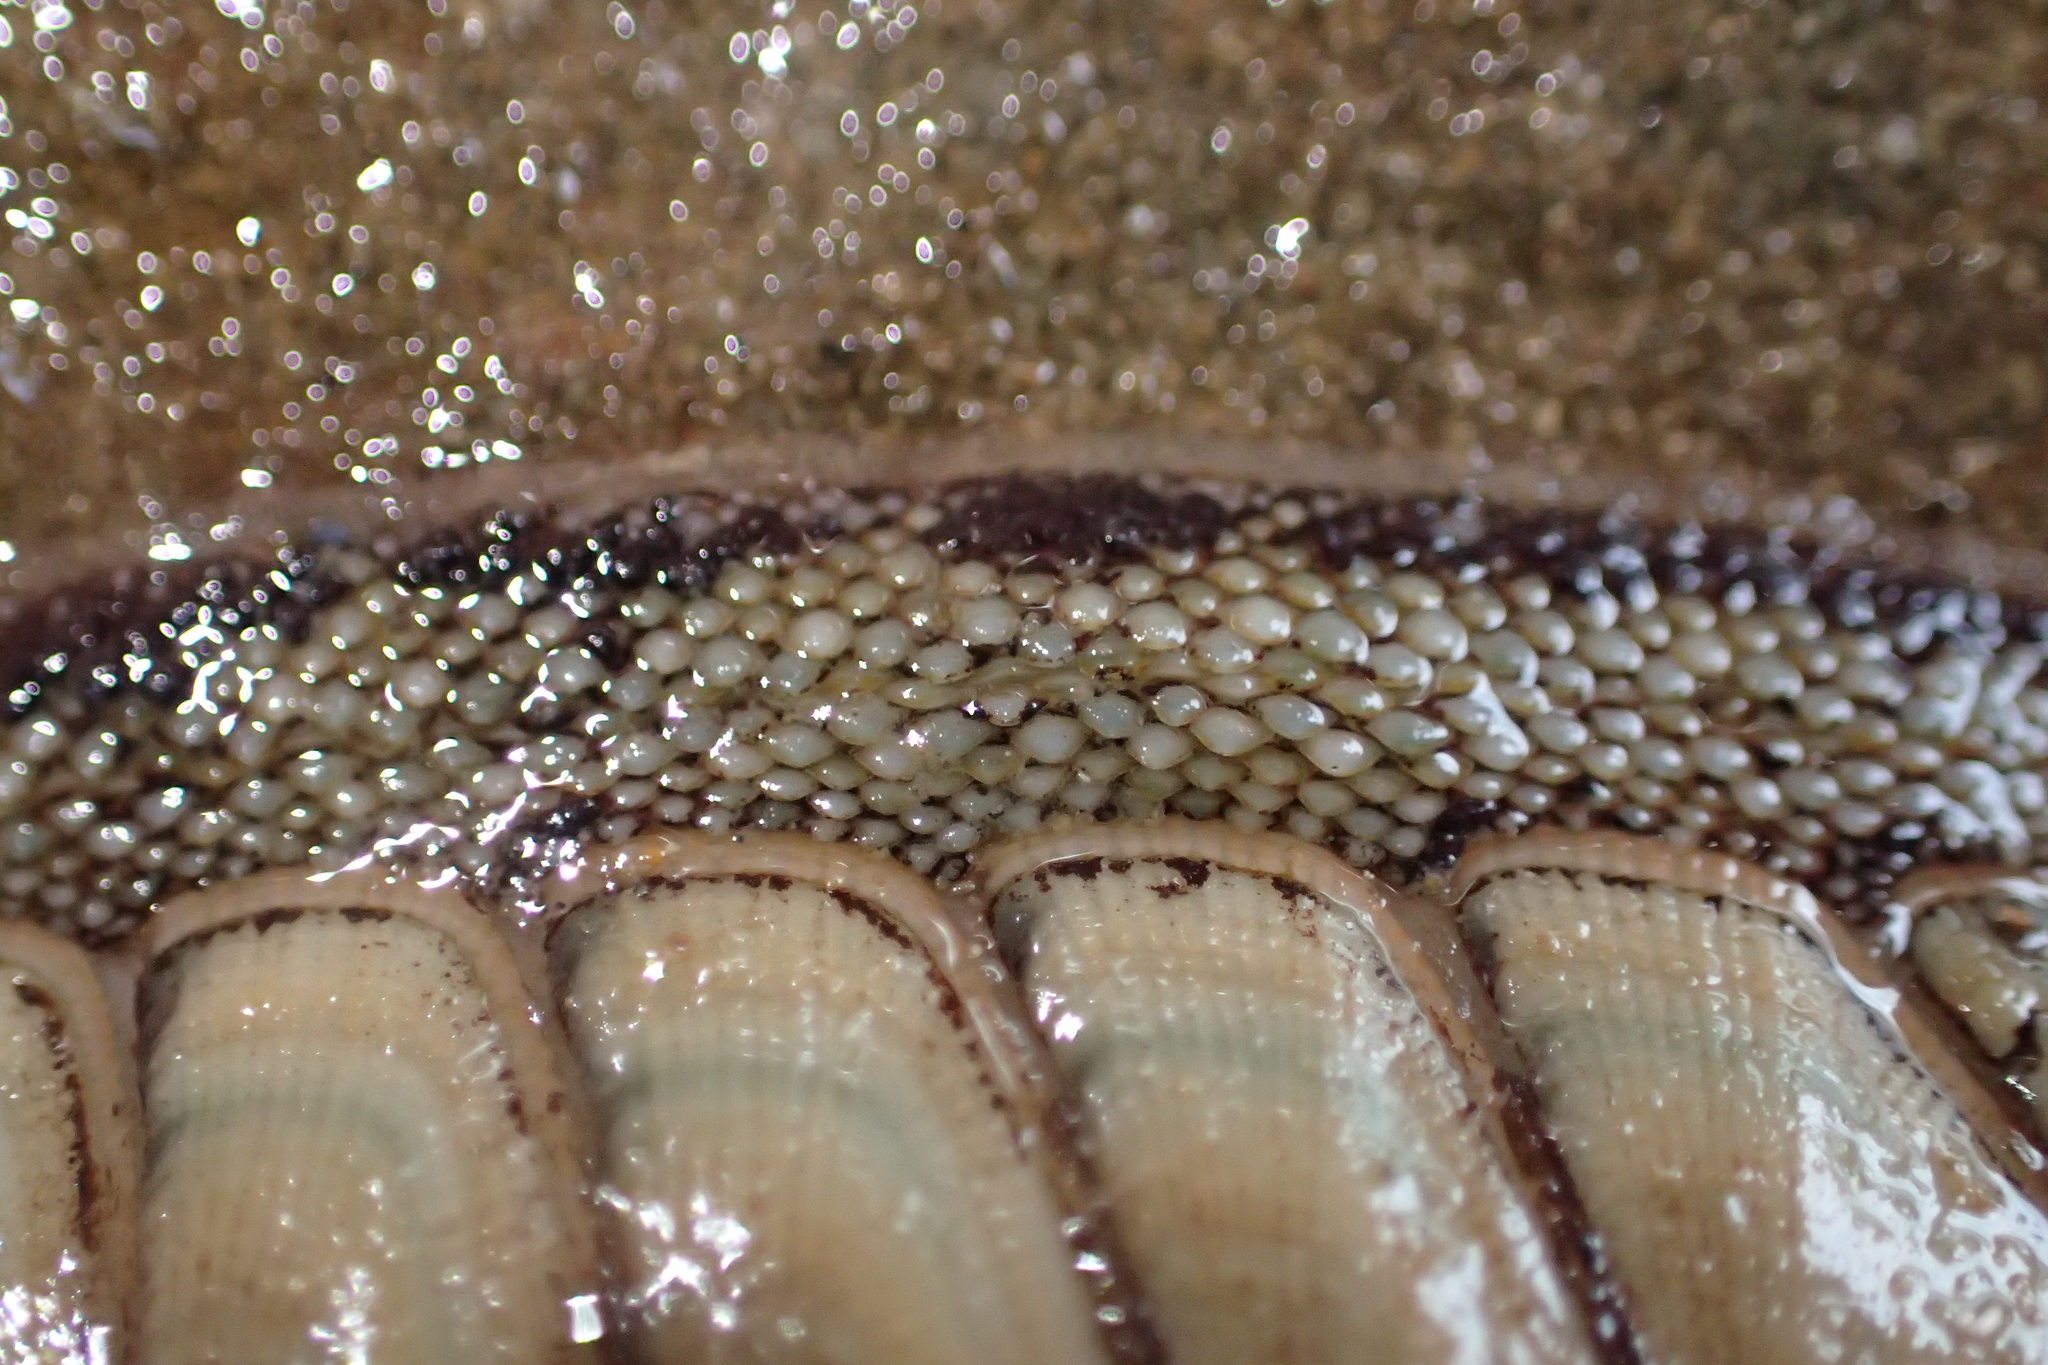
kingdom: Animalia
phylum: Mollusca
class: Polyplacophora
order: Chitonida
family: Chitonidae
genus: Chiton
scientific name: Chiton glaucus
